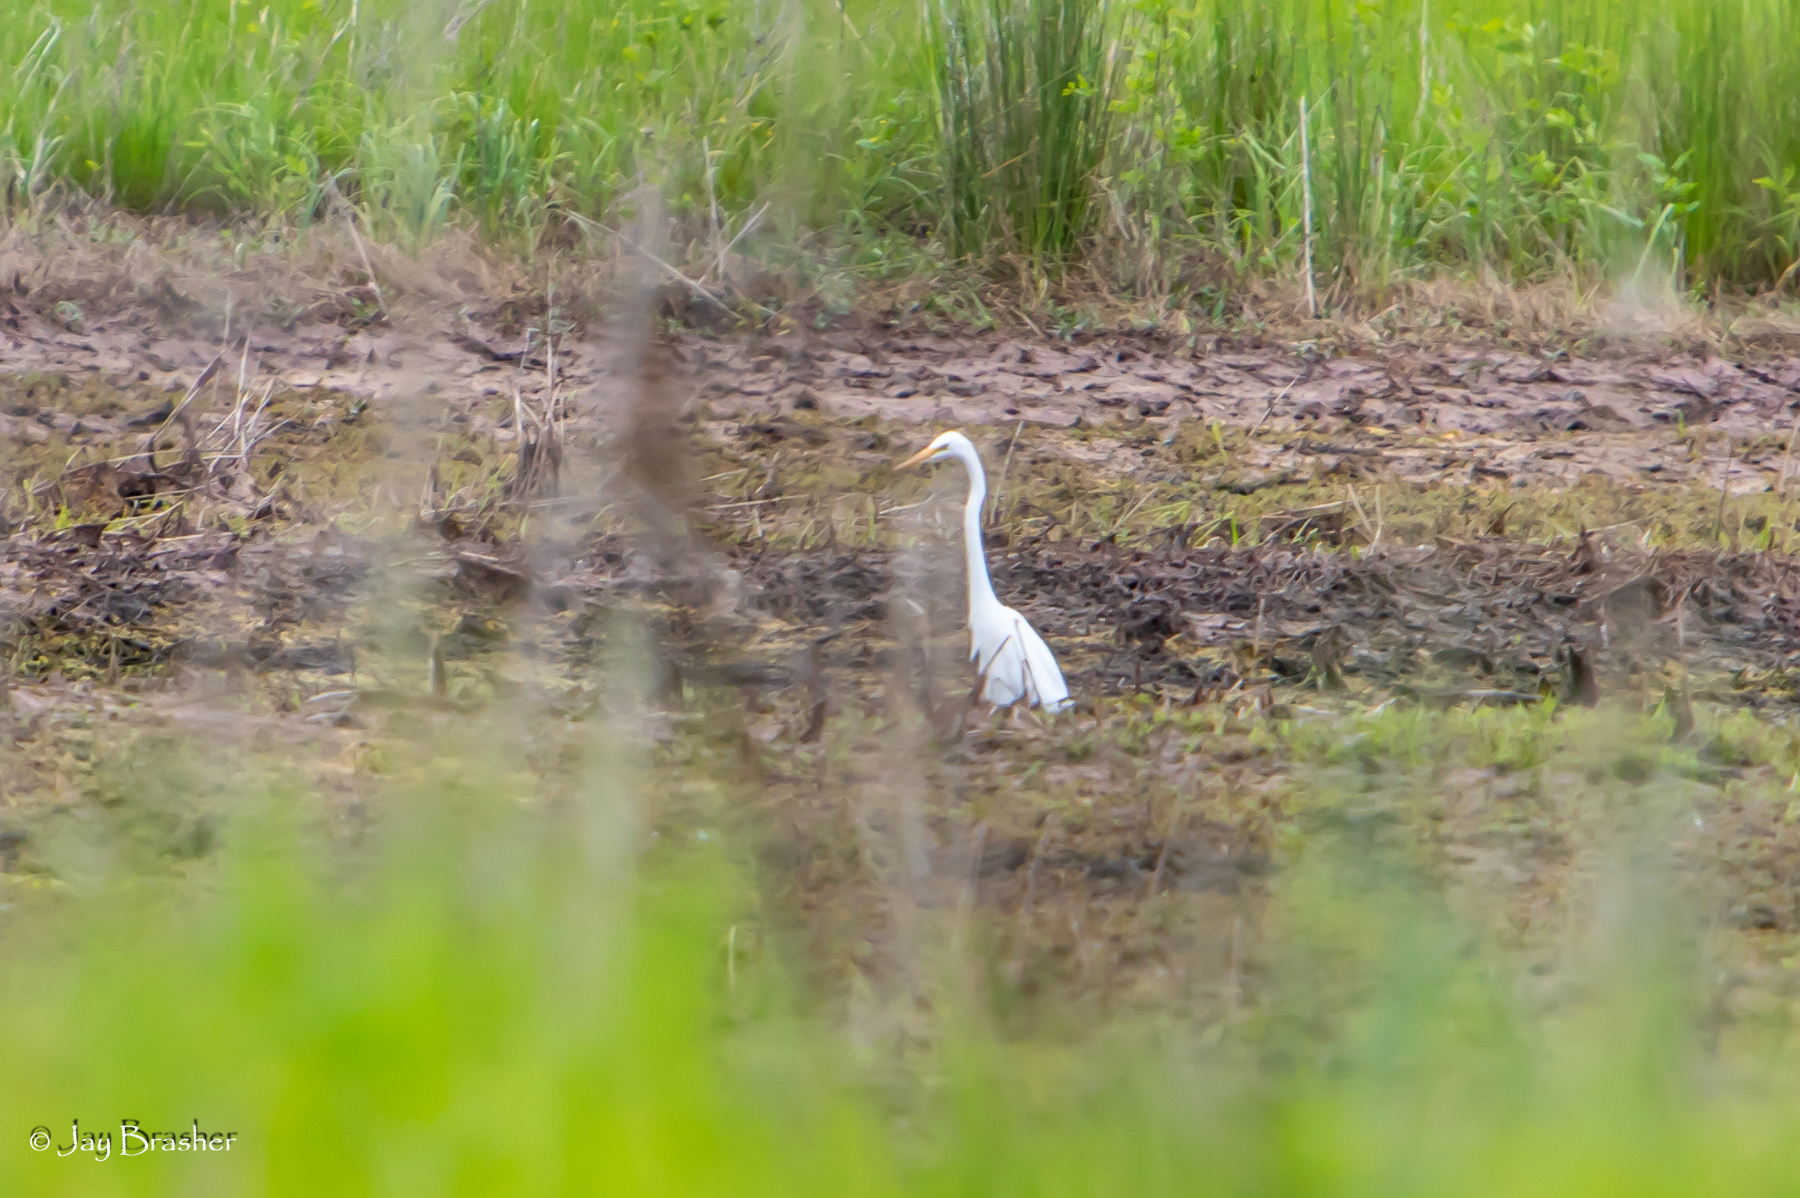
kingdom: Animalia
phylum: Chordata
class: Aves
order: Pelecaniformes
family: Ardeidae
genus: Ardea
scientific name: Ardea alba
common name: Great egret
